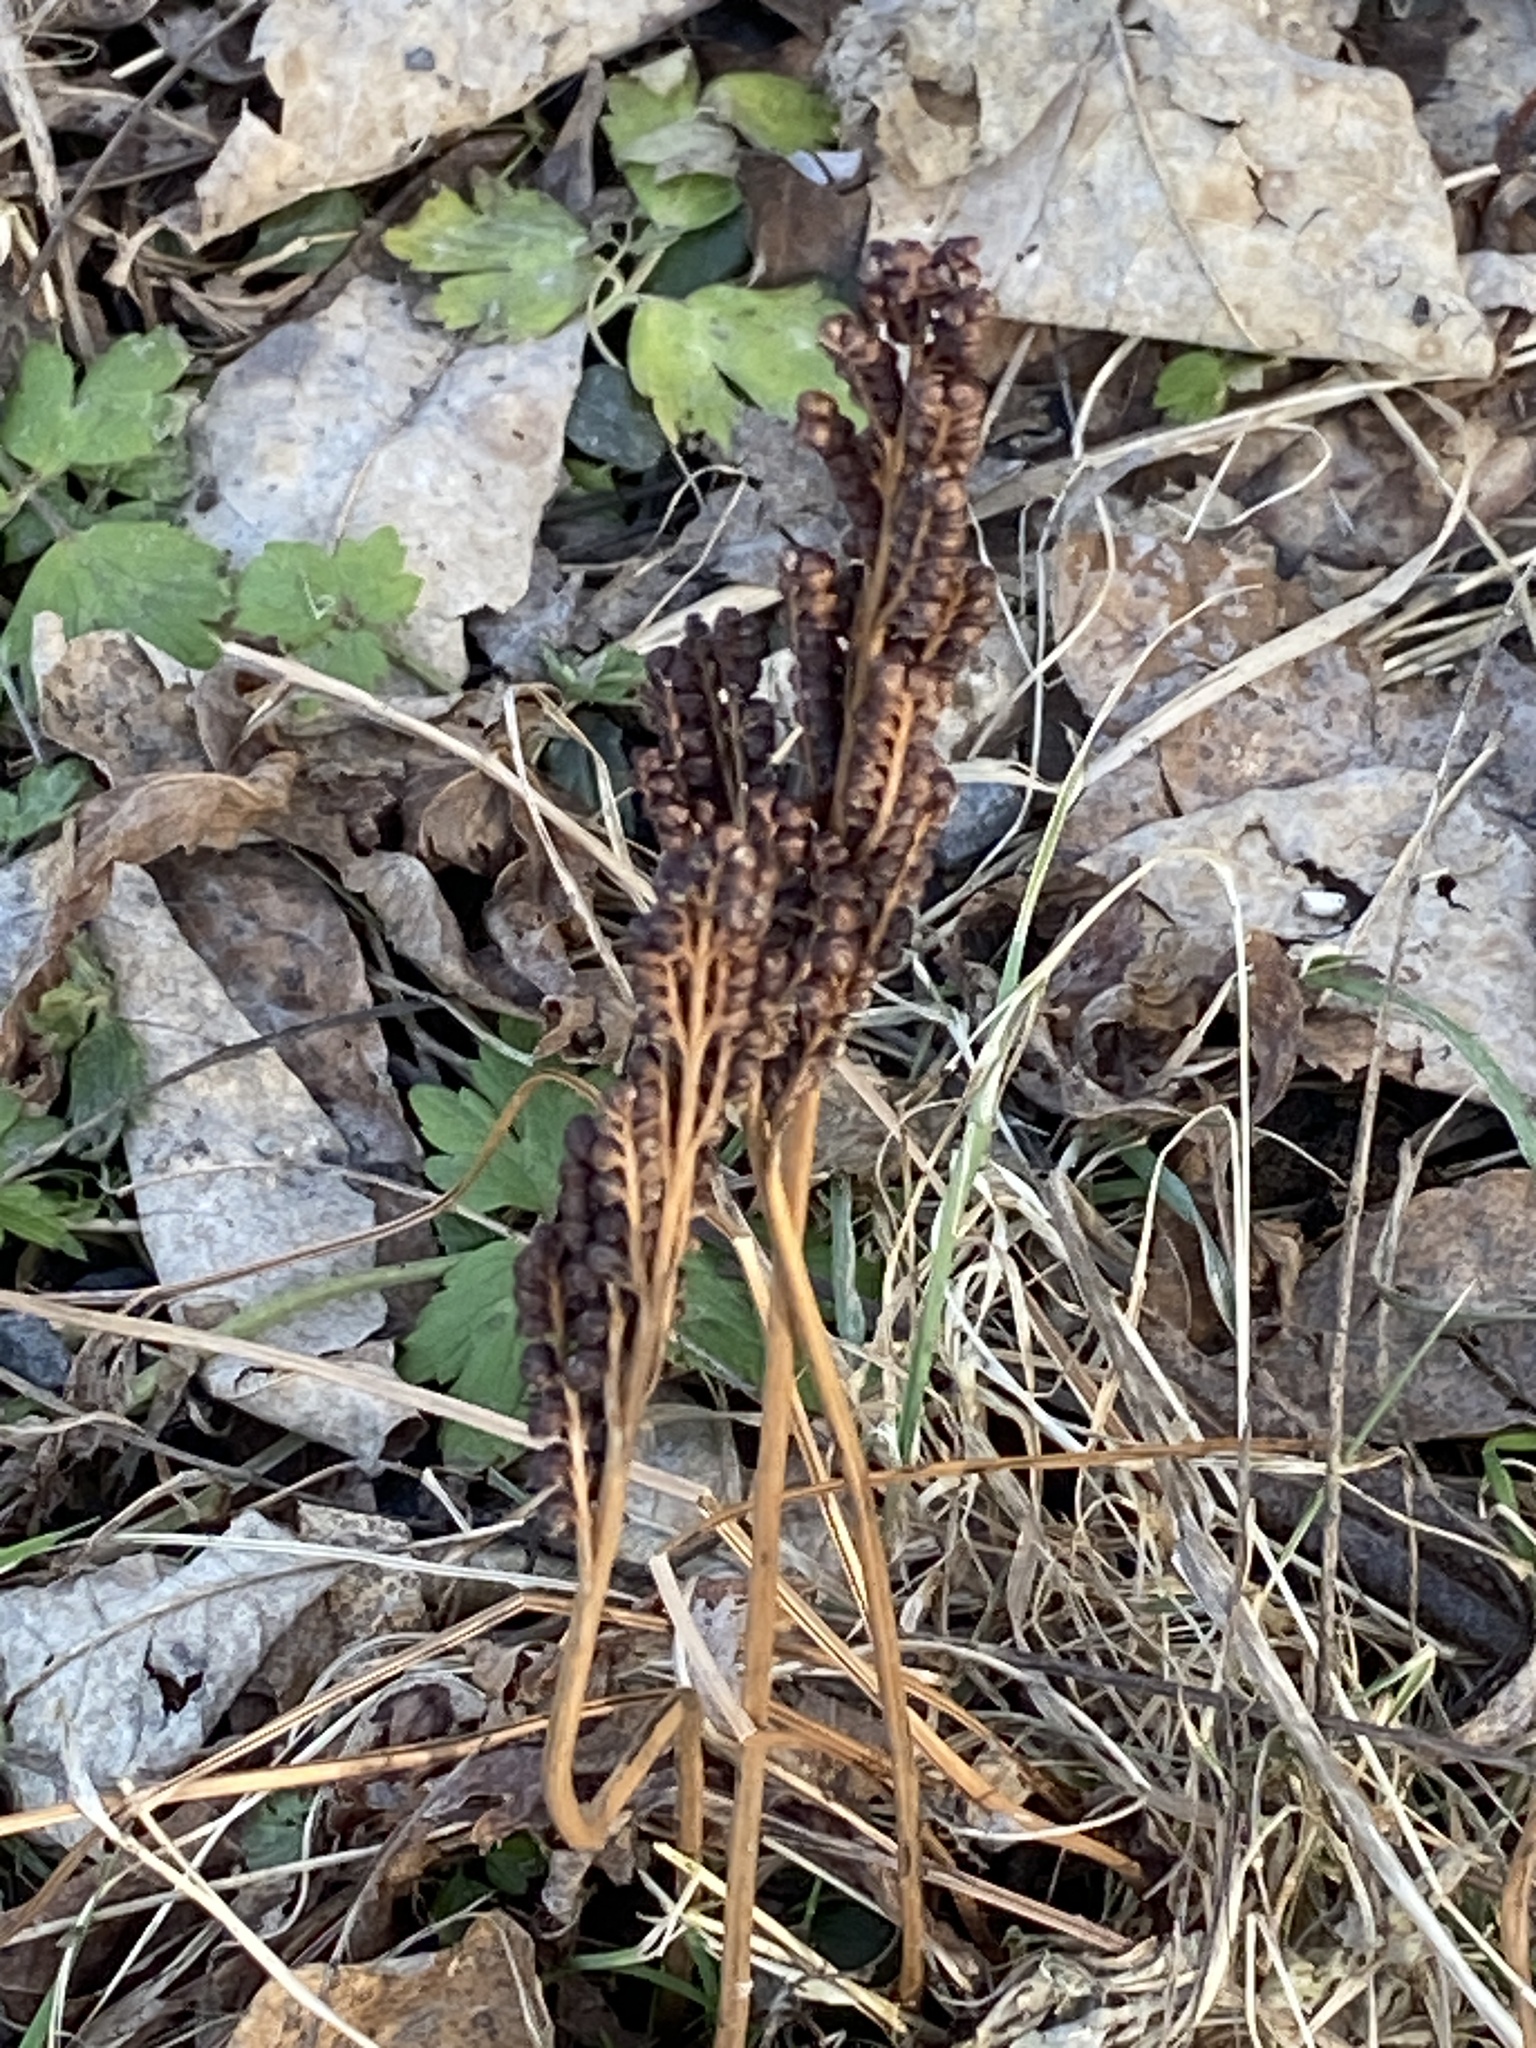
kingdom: Plantae
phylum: Tracheophyta
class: Polypodiopsida
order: Polypodiales
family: Onocleaceae
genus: Onoclea
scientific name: Onoclea sensibilis
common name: Sensitive fern
